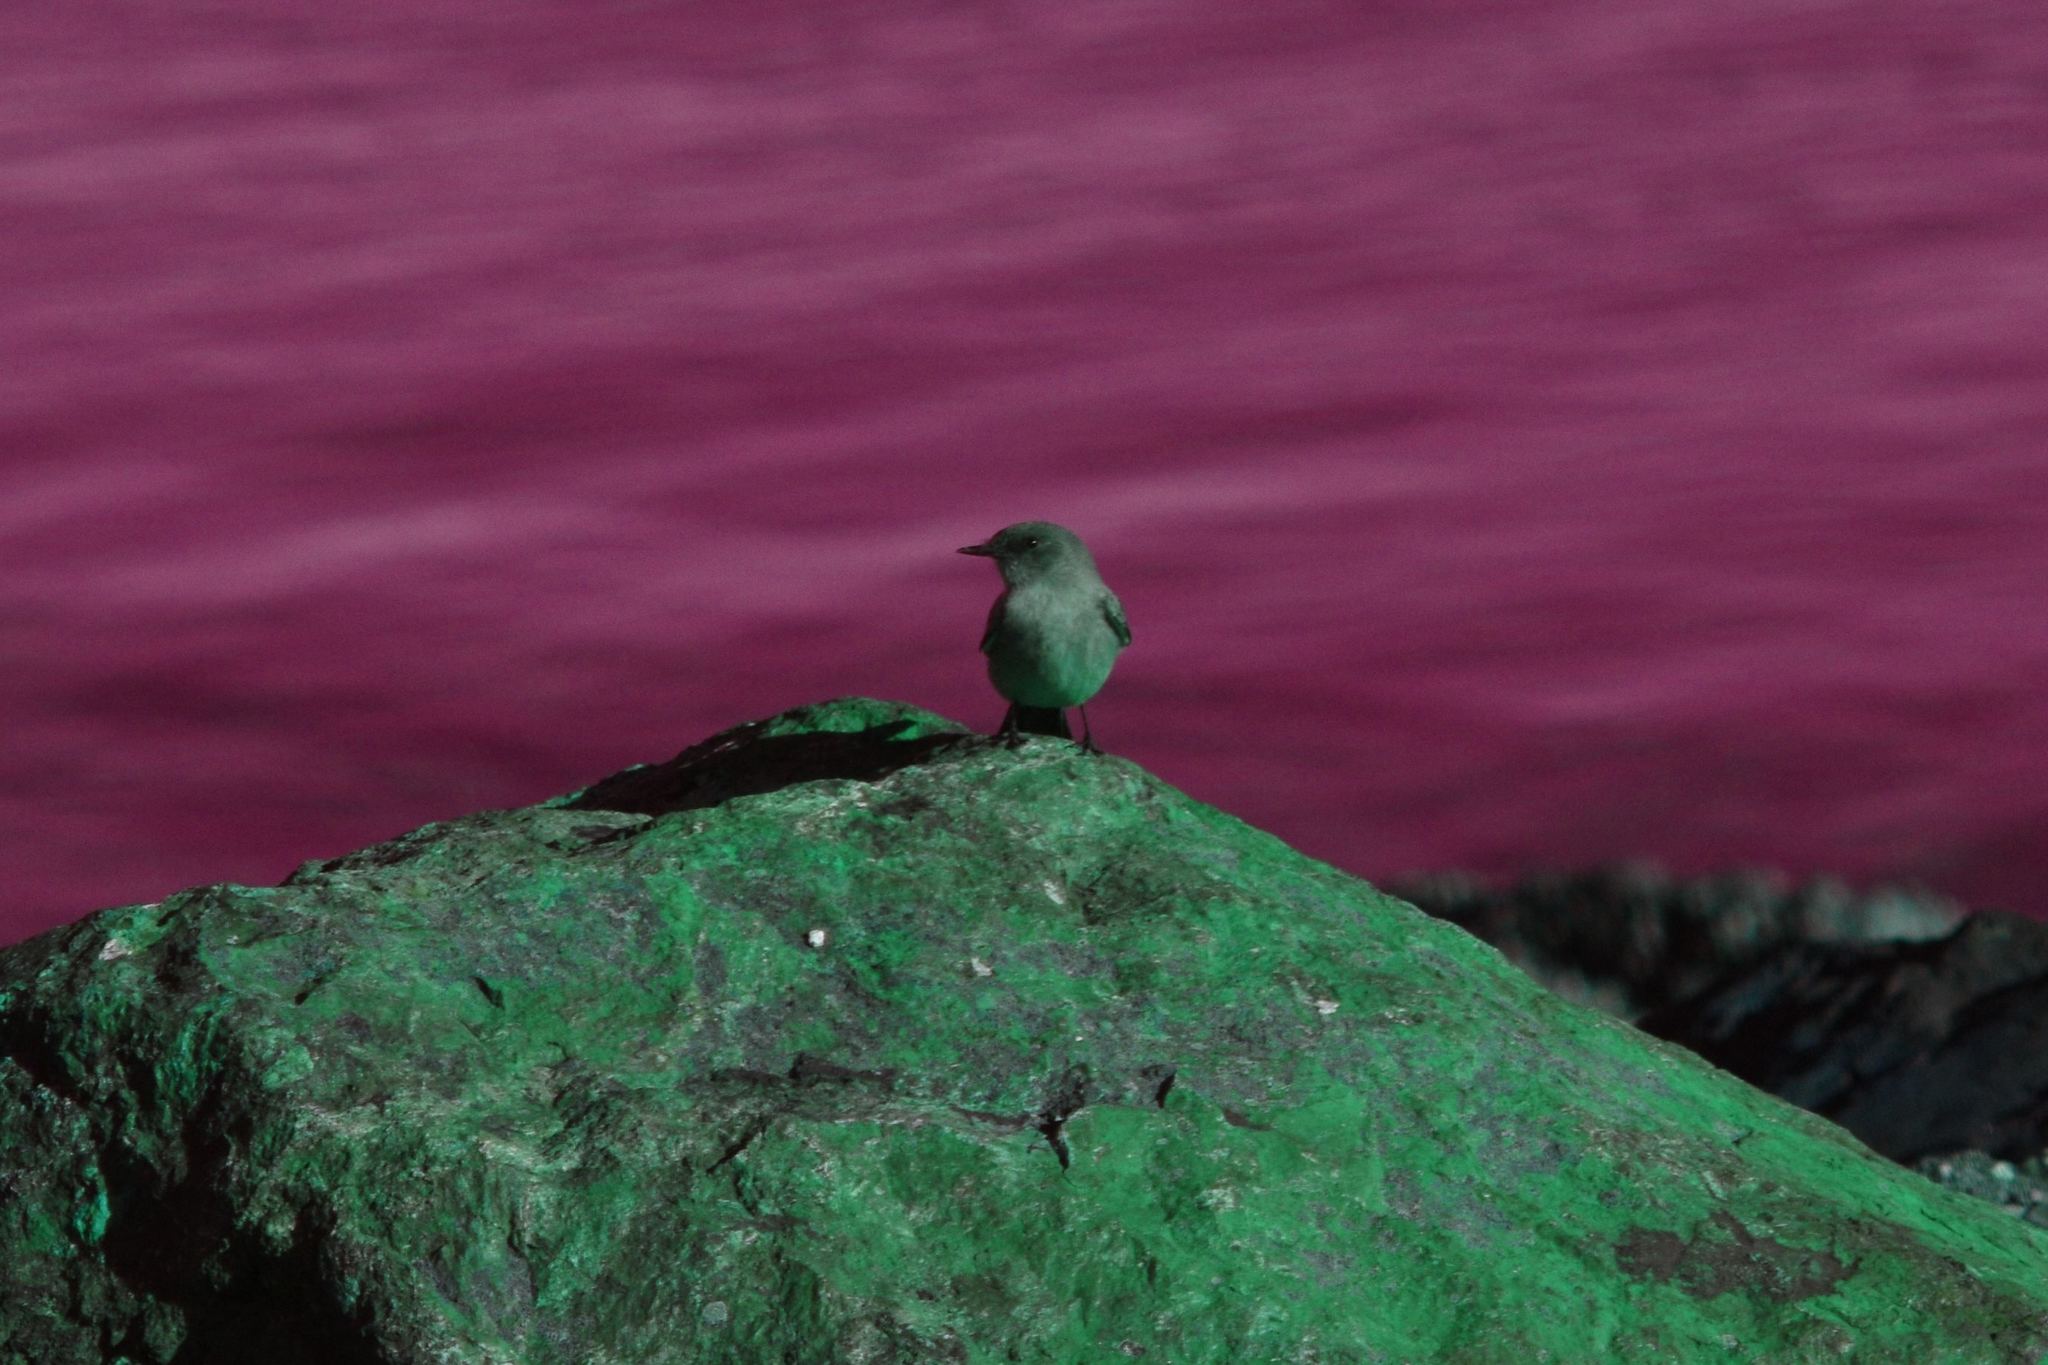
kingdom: Animalia
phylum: Chordata
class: Aves
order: Passeriformes
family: Tyrannidae
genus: Sayornis
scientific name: Sayornis saya
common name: Say's phoebe
